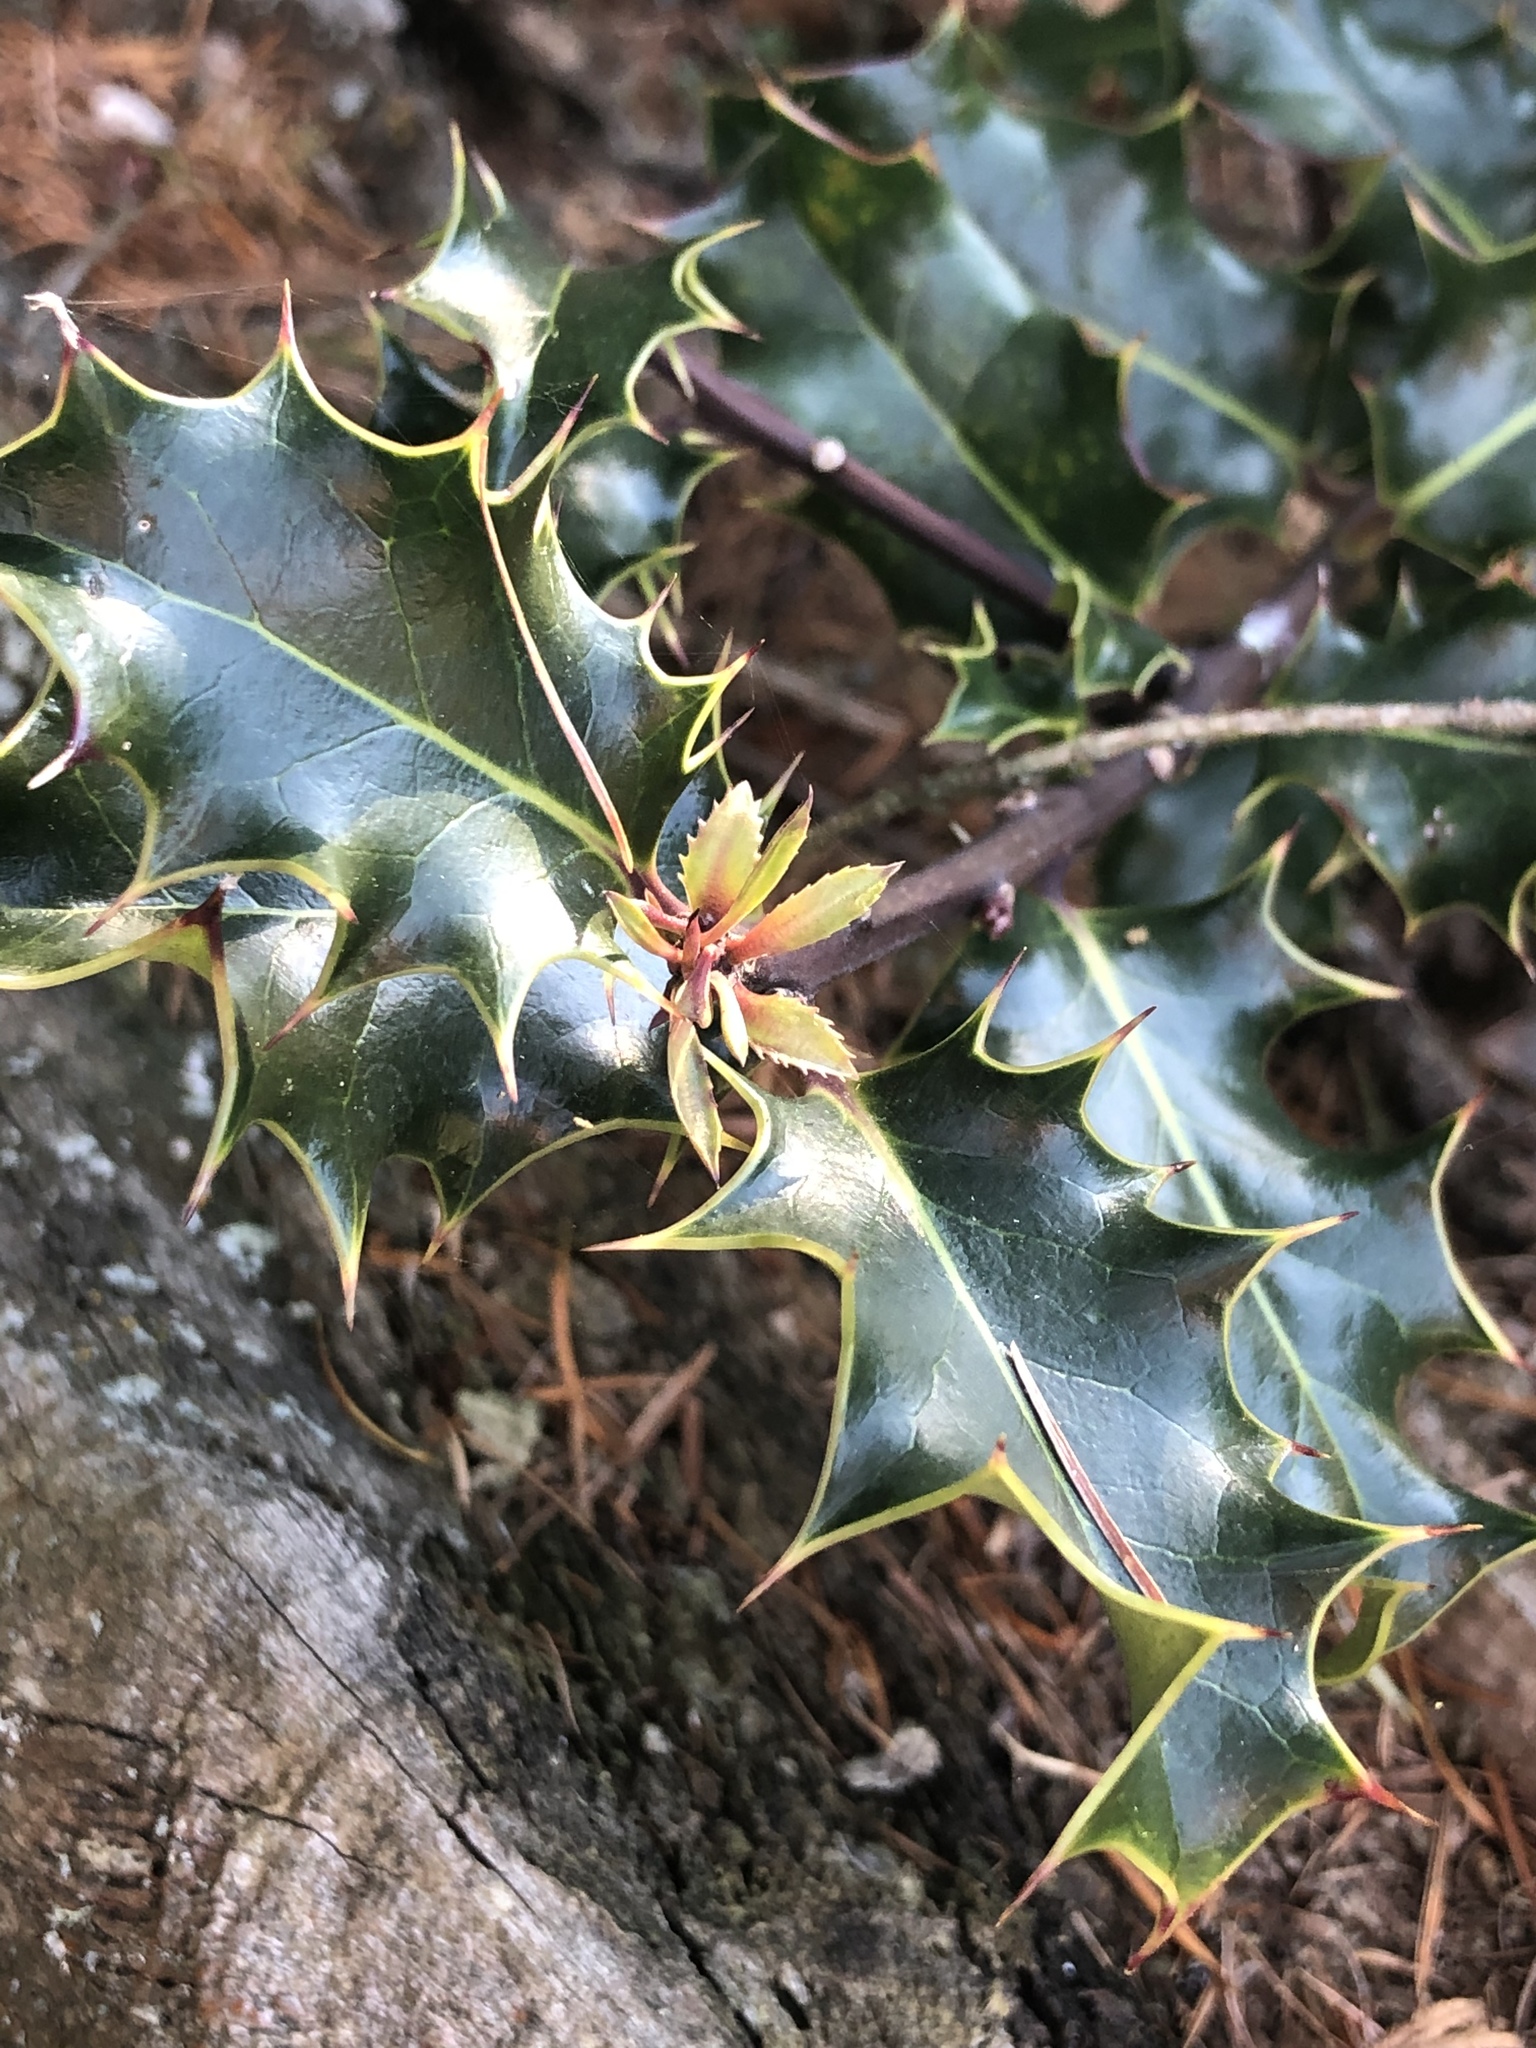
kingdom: Plantae
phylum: Tracheophyta
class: Magnoliopsida
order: Aquifoliales
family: Aquifoliaceae
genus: Ilex
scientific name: Ilex aquifolium
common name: English holly
